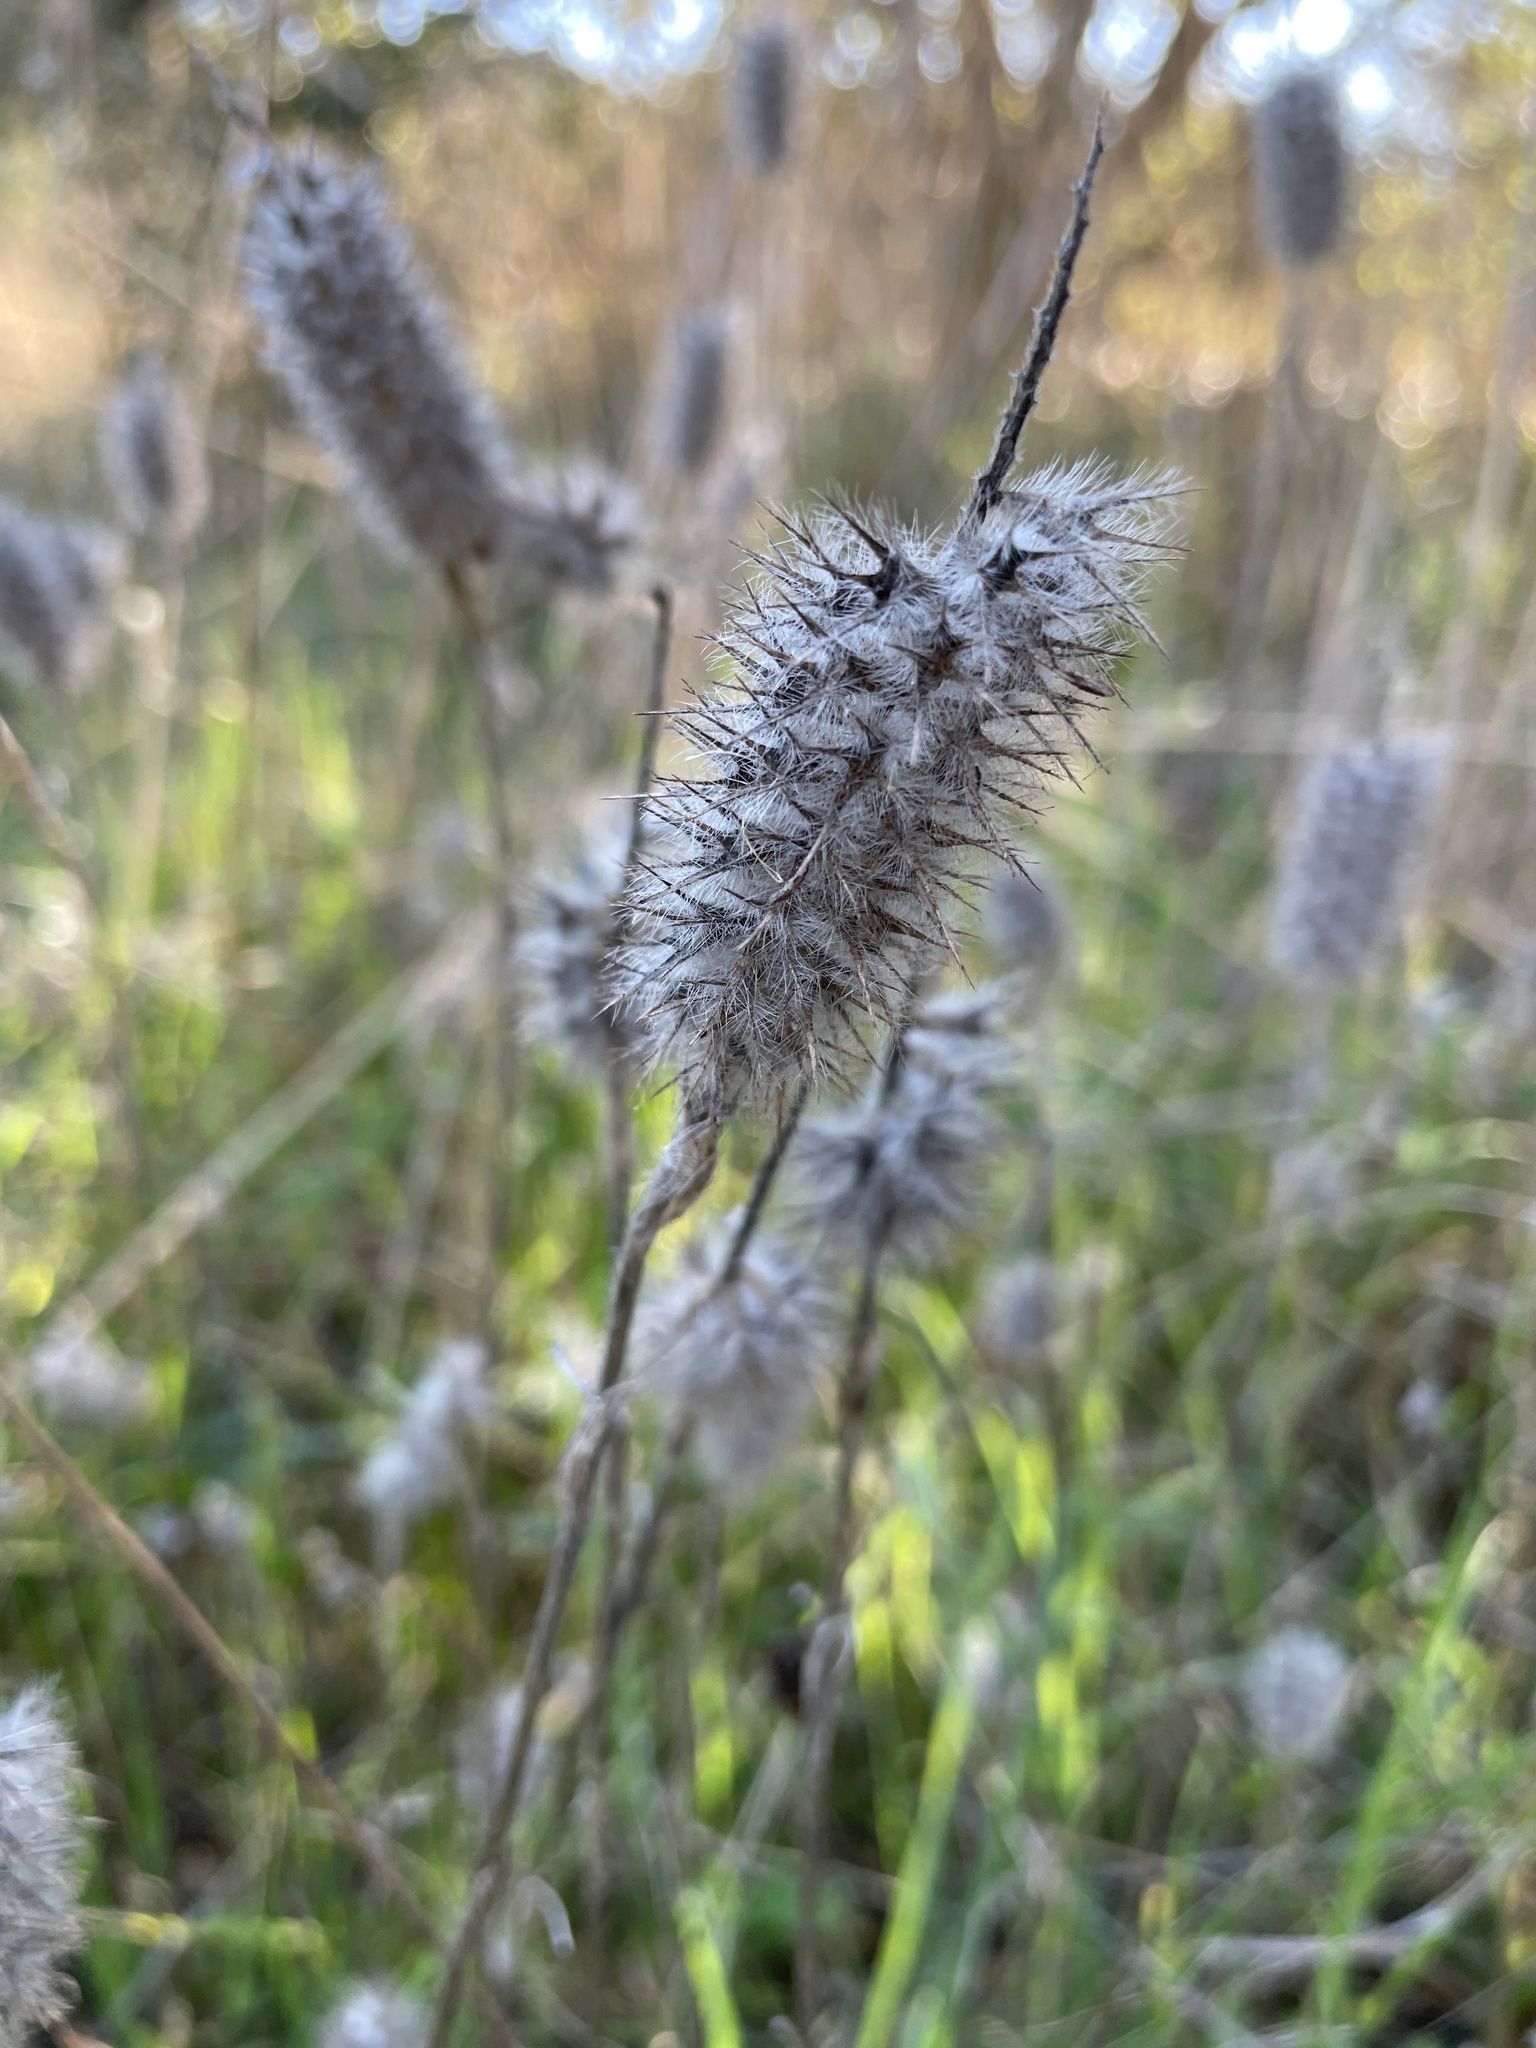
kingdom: Plantae
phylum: Tracheophyta
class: Magnoliopsida
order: Fabales
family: Fabaceae
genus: Trifolium
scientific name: Trifolium angustifolium
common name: Narrow clover
